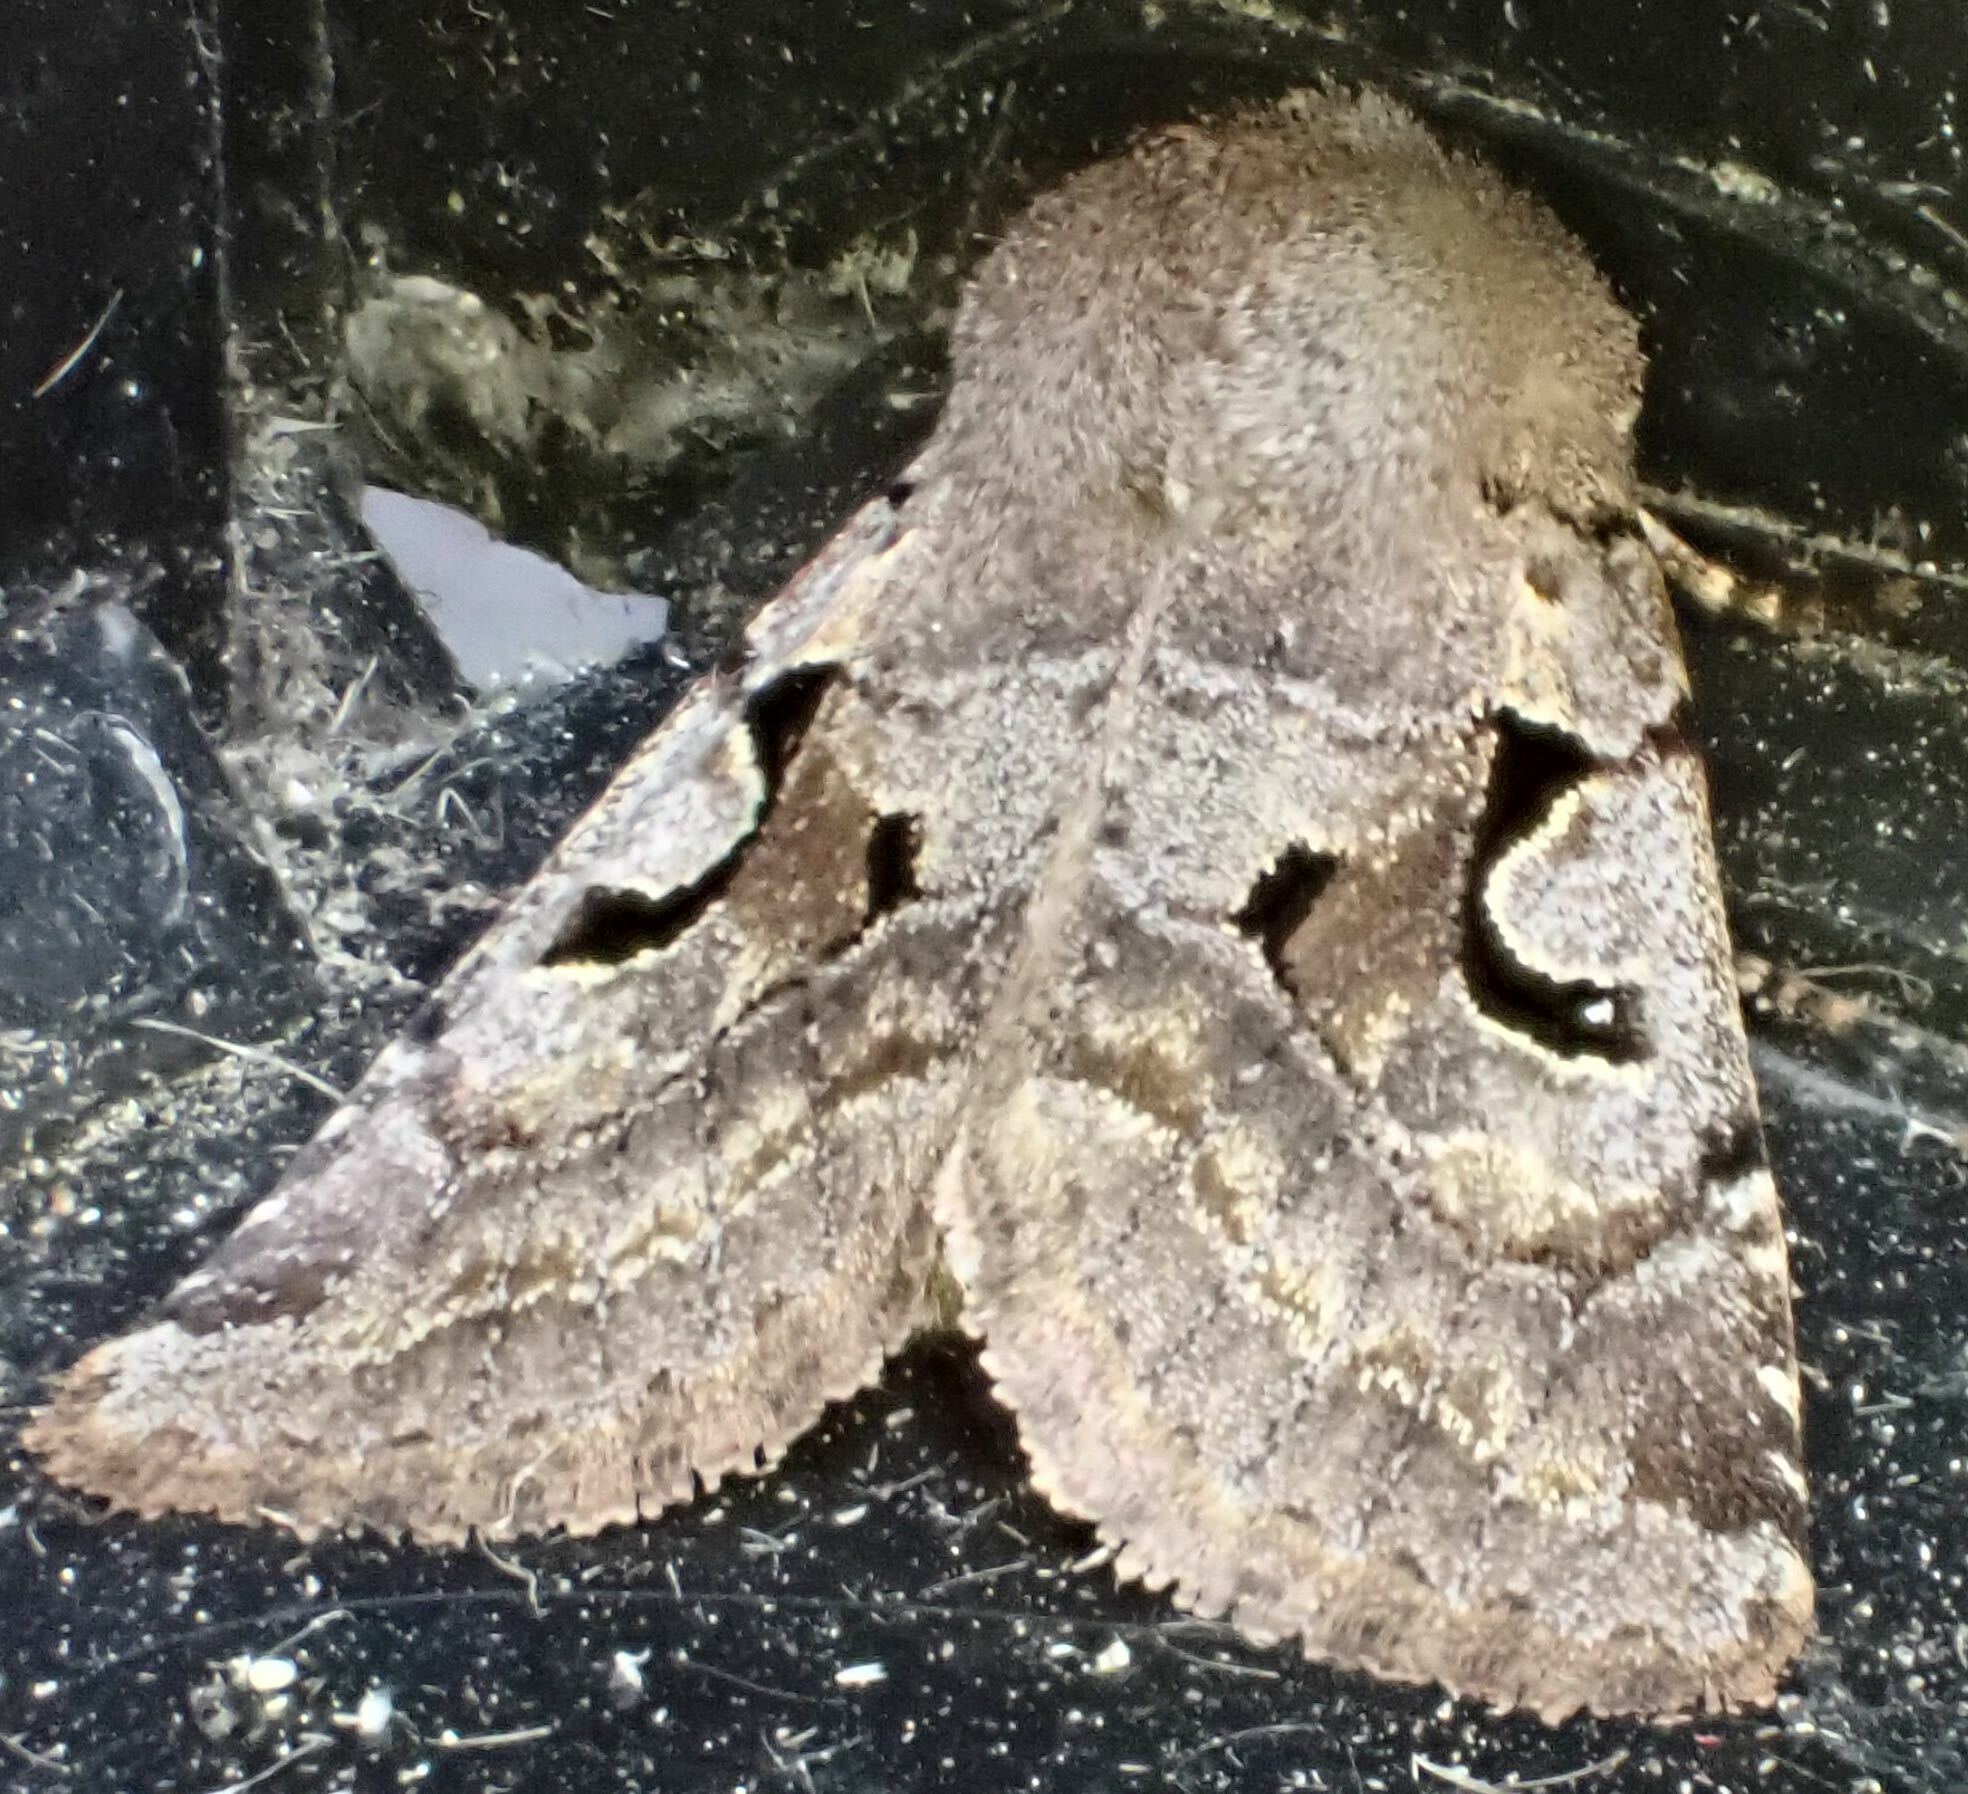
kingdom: Animalia
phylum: Arthropoda
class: Insecta
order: Lepidoptera
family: Noctuidae
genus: Orthosia
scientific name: Orthosia gothica
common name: Hebrew character
